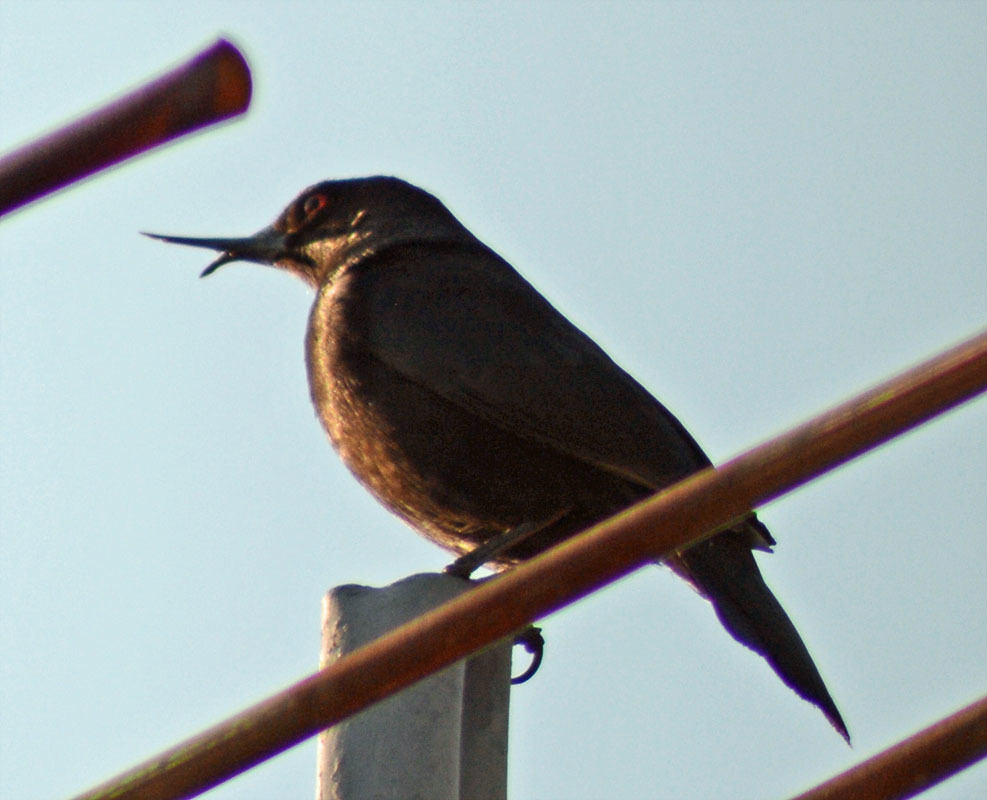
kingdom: Animalia
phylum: Chordata
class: Aves
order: Passeriformes
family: Icteridae
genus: Molothrus
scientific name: Molothrus aeneus
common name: Bronzed cowbird
